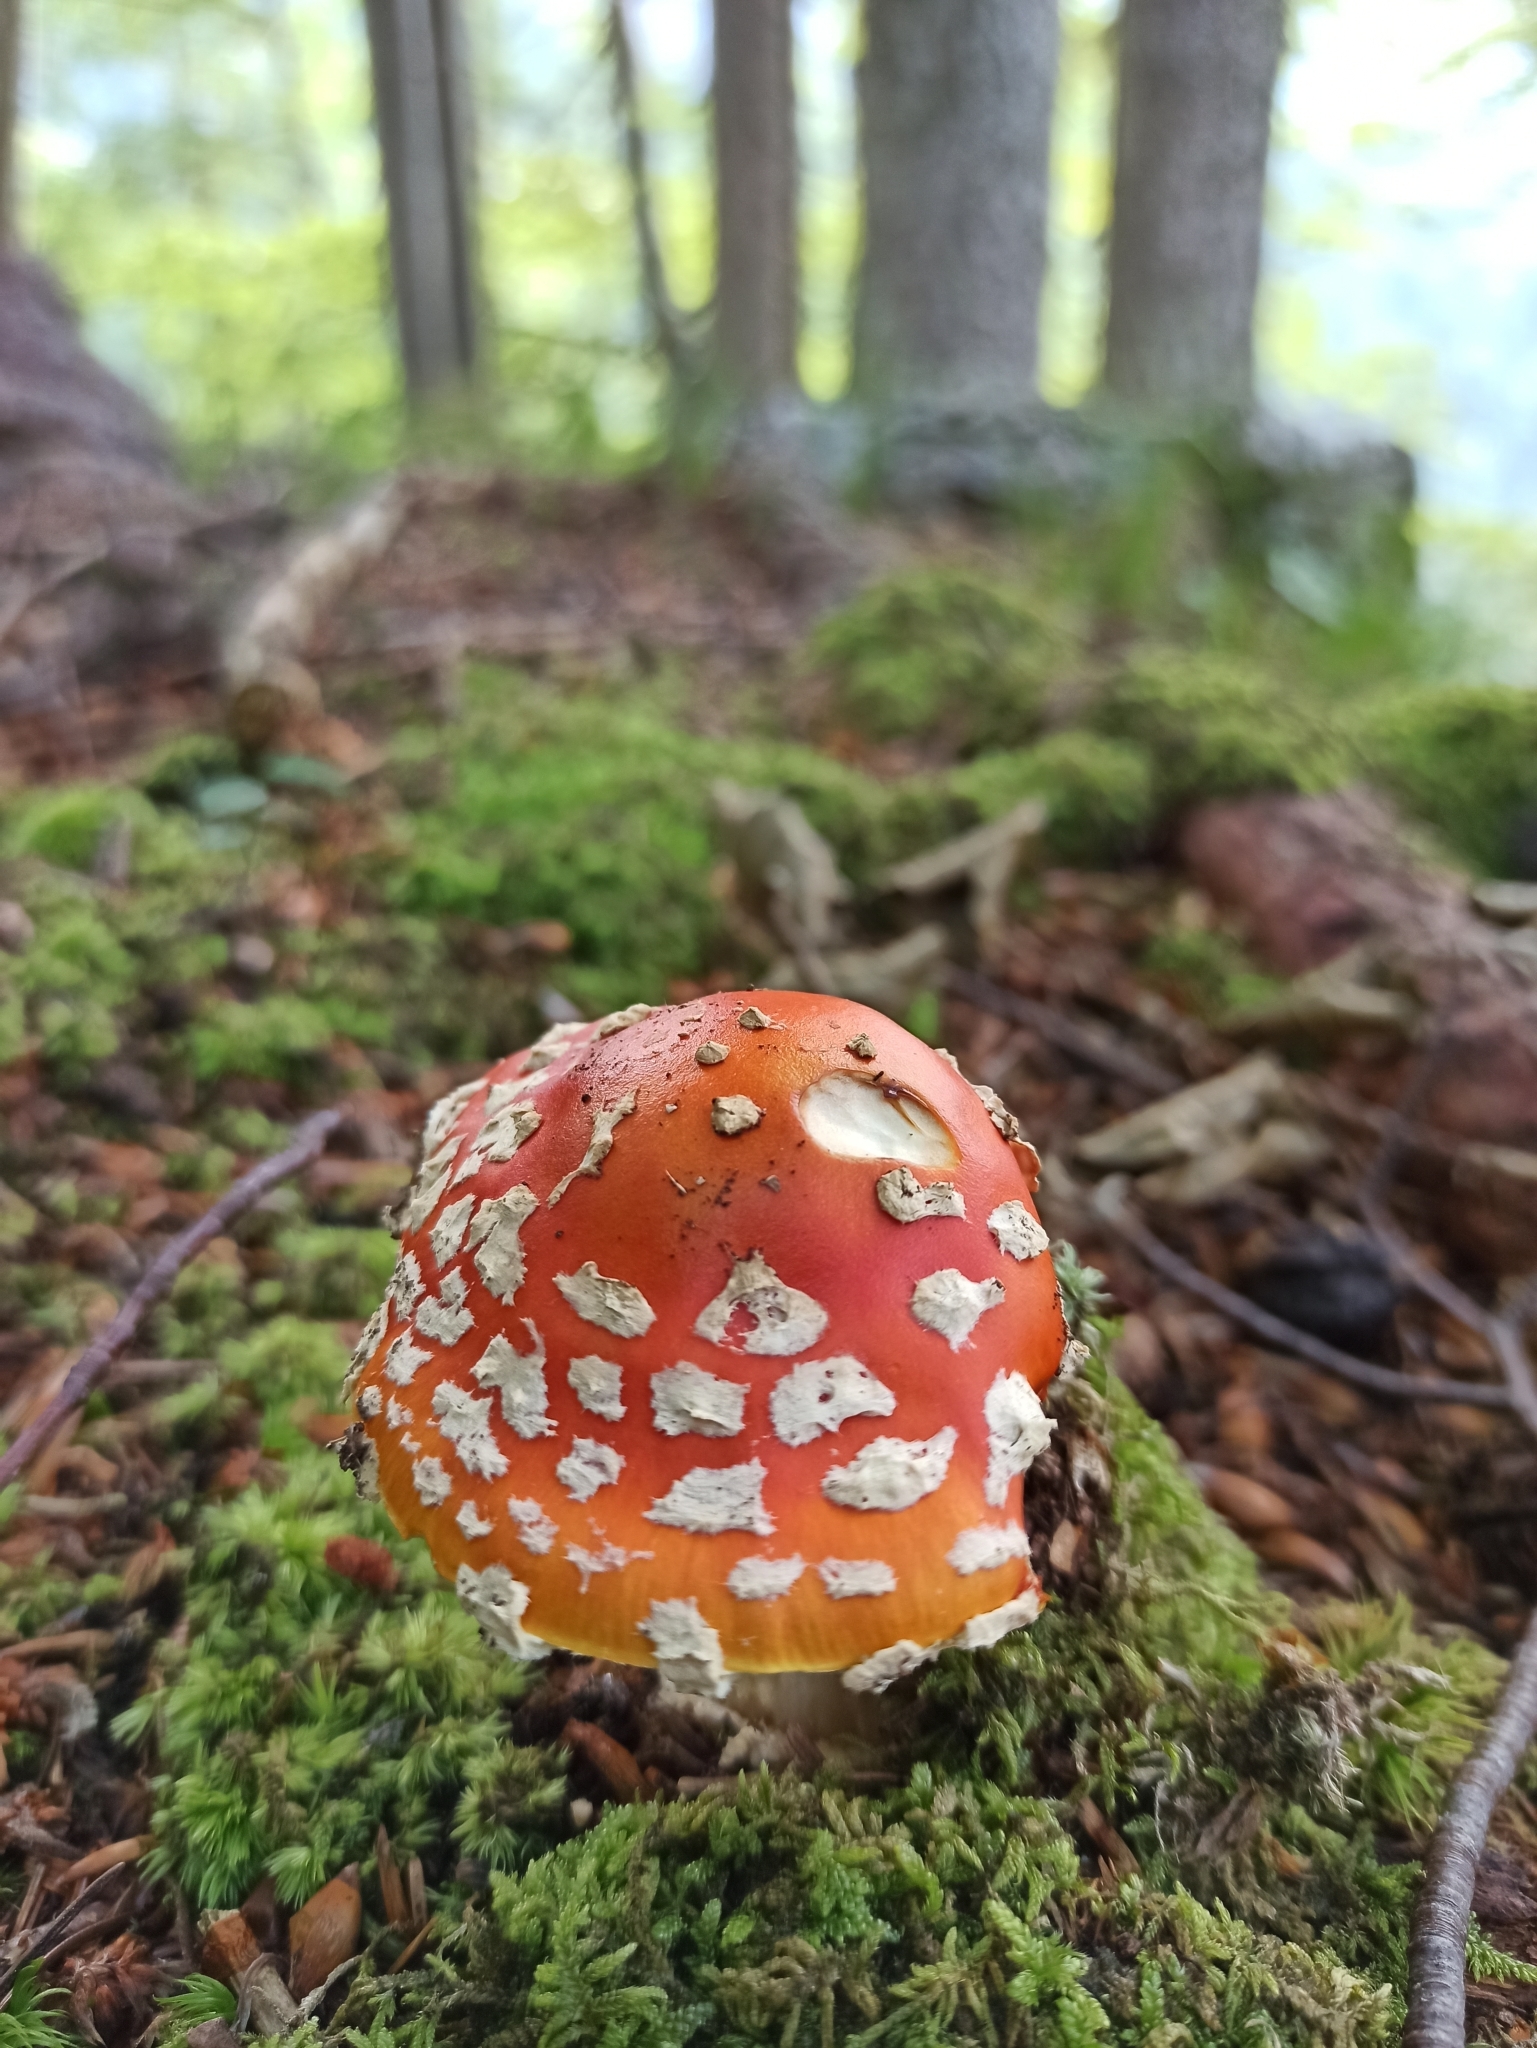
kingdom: Fungi
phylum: Basidiomycota
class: Agaricomycetes
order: Agaricales
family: Amanitaceae
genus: Amanita
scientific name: Amanita muscaria
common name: Fly agaric
